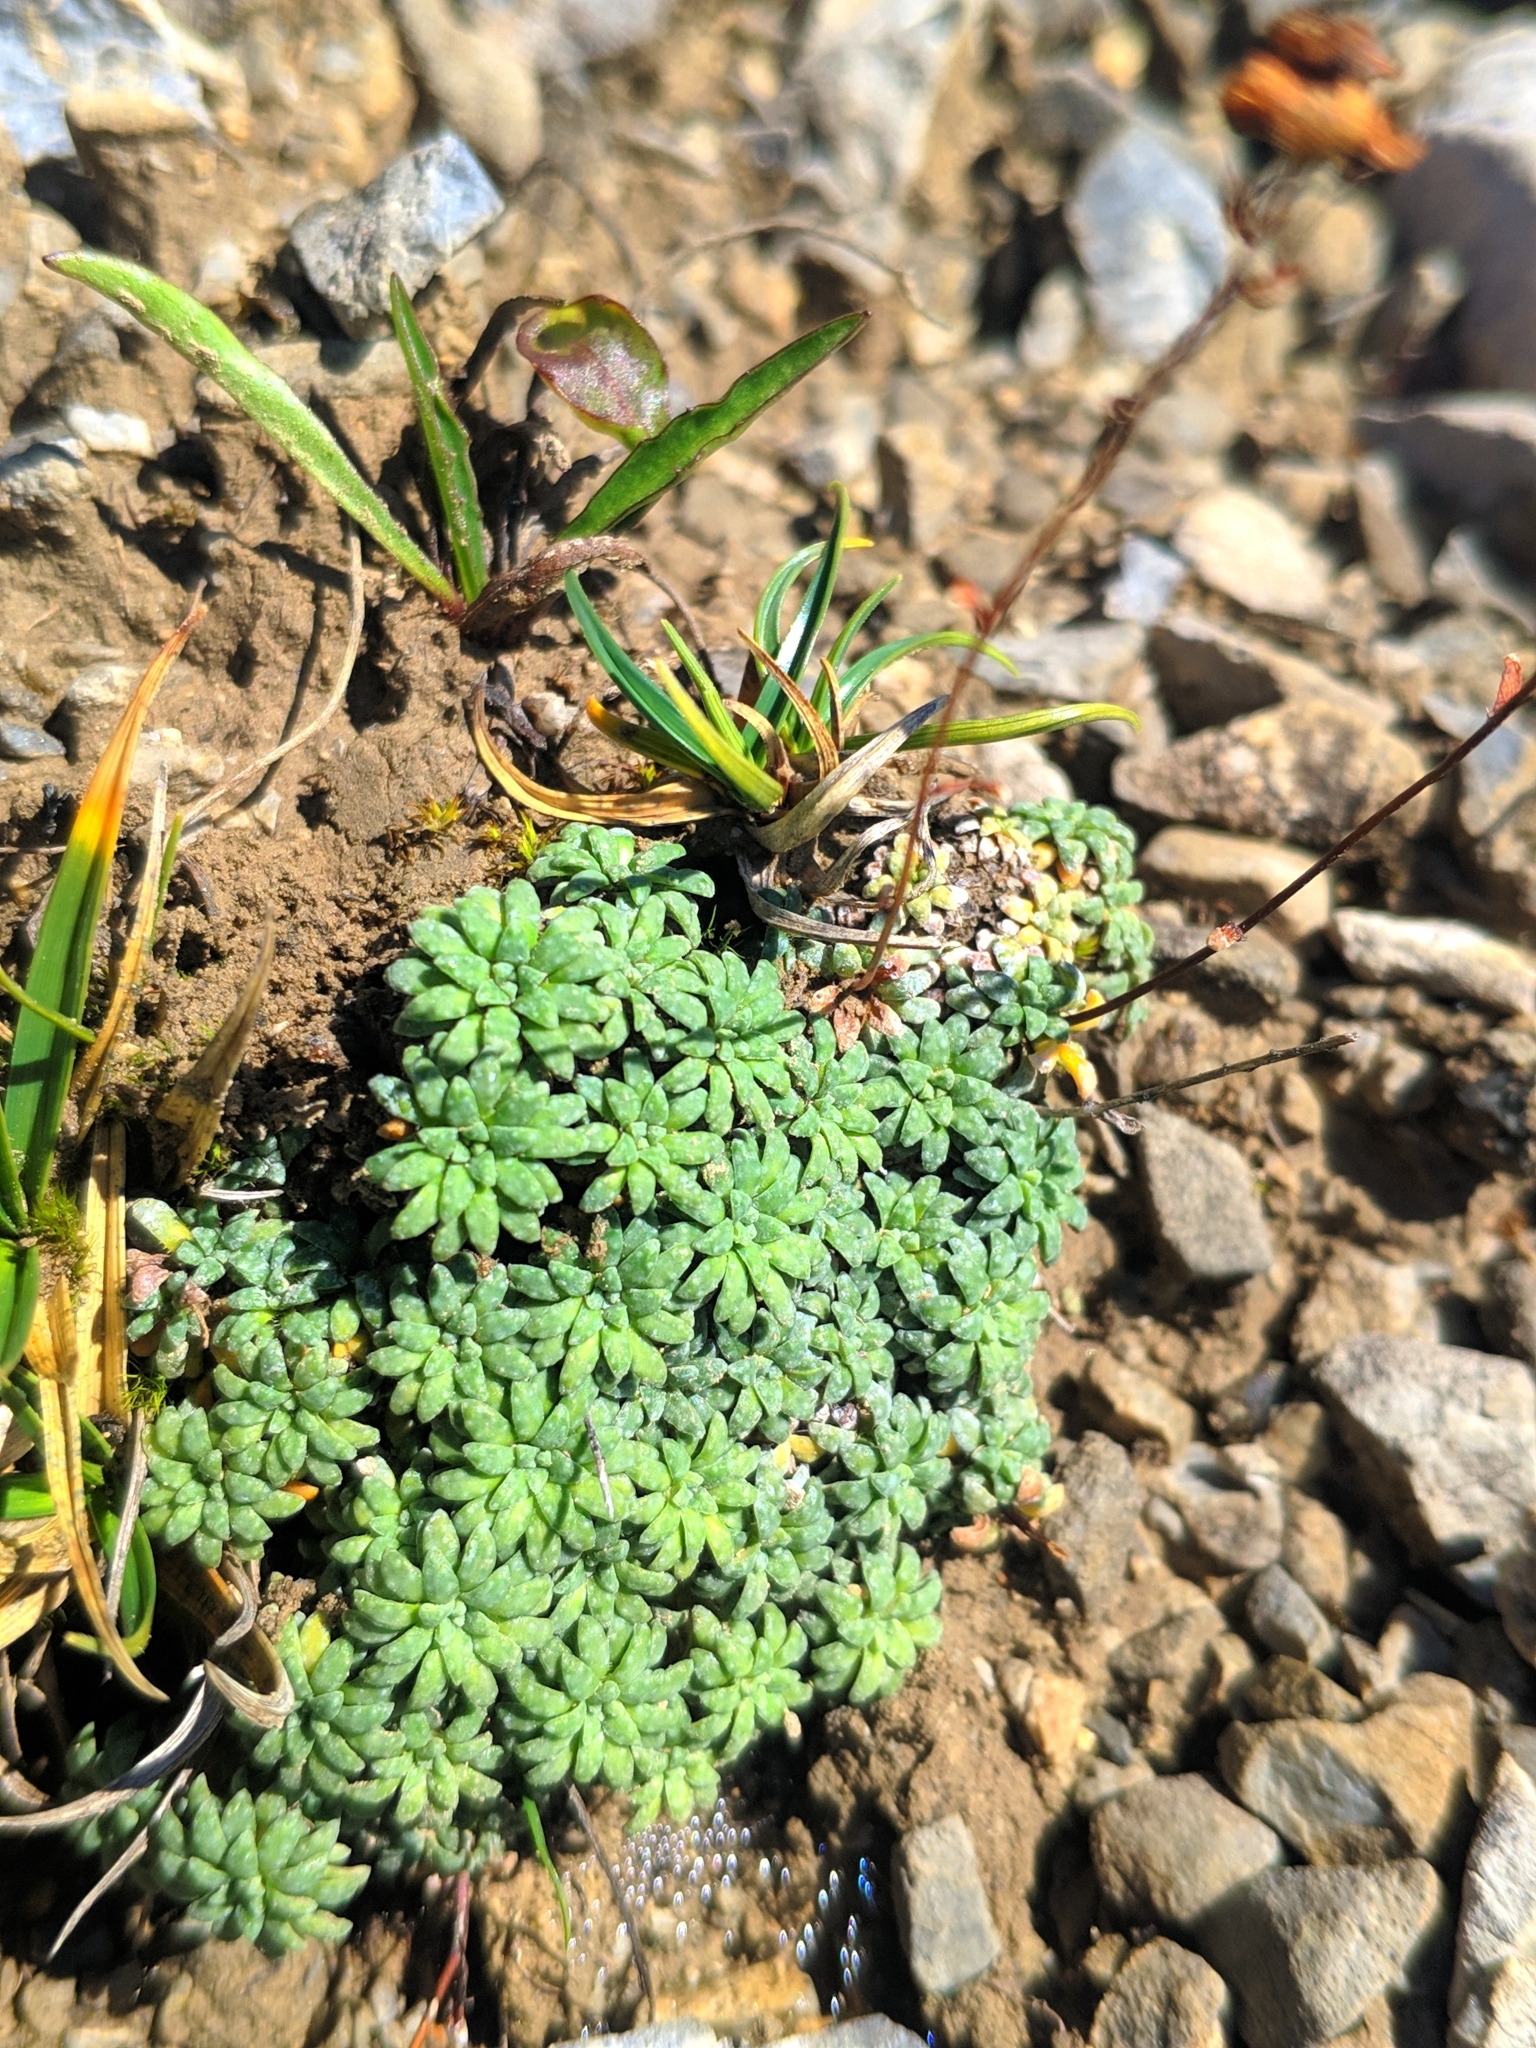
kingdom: Plantae
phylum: Tracheophyta
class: Magnoliopsida
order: Saxifragales
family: Saxifragaceae
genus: Saxifraga
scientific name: Saxifraga caesia
